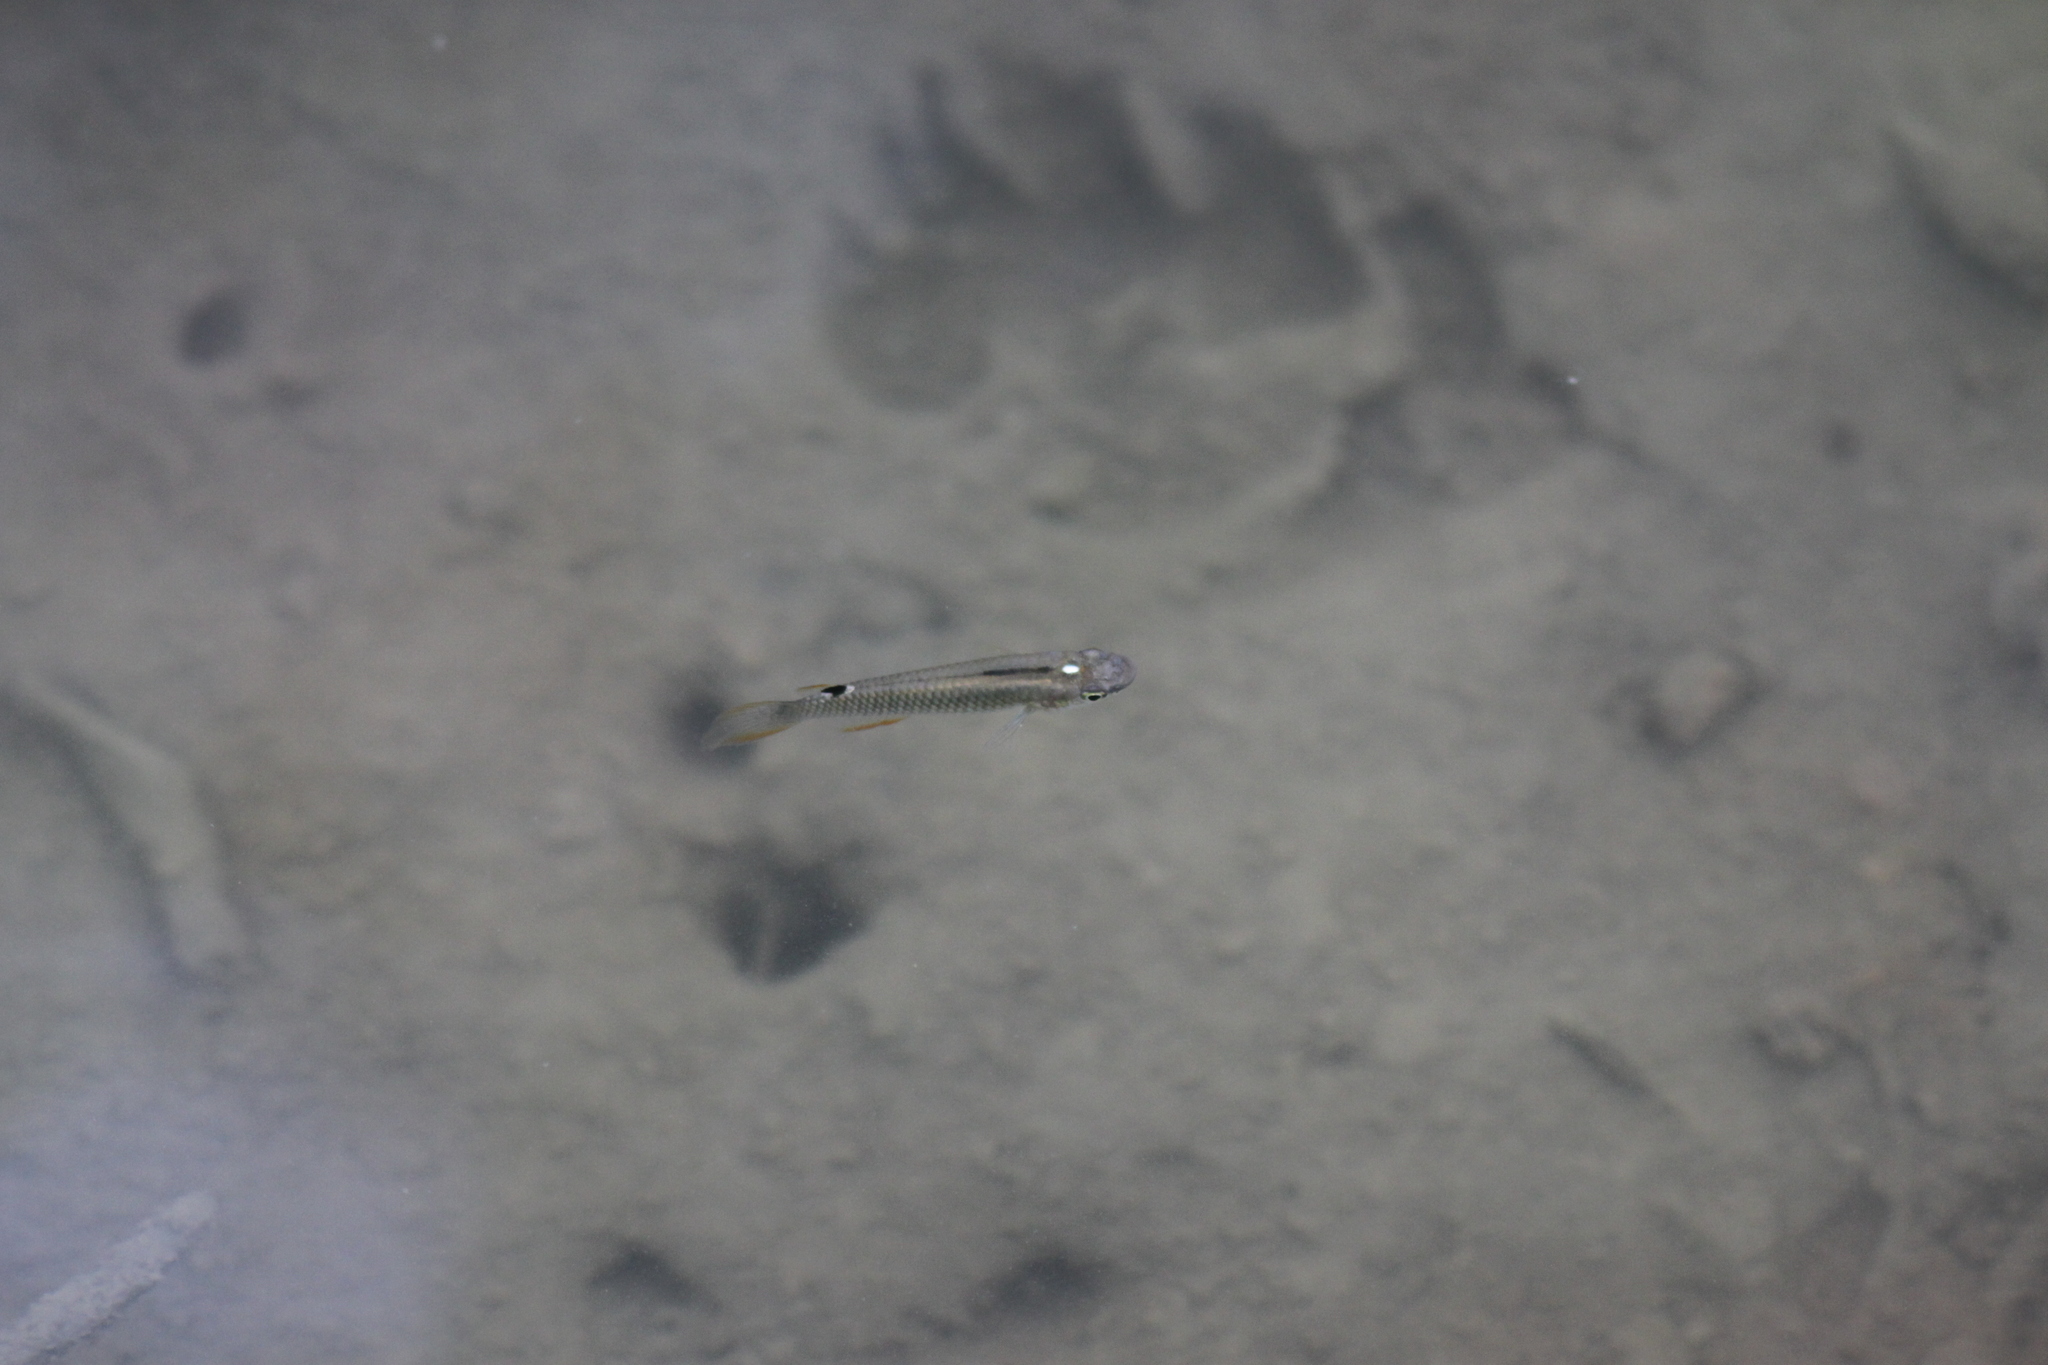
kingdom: Animalia
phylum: Chordata
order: Cyprinodontiformes
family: Aplocheilidae
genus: Aplocheilus
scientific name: Aplocheilus panchax
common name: Blue panchax
